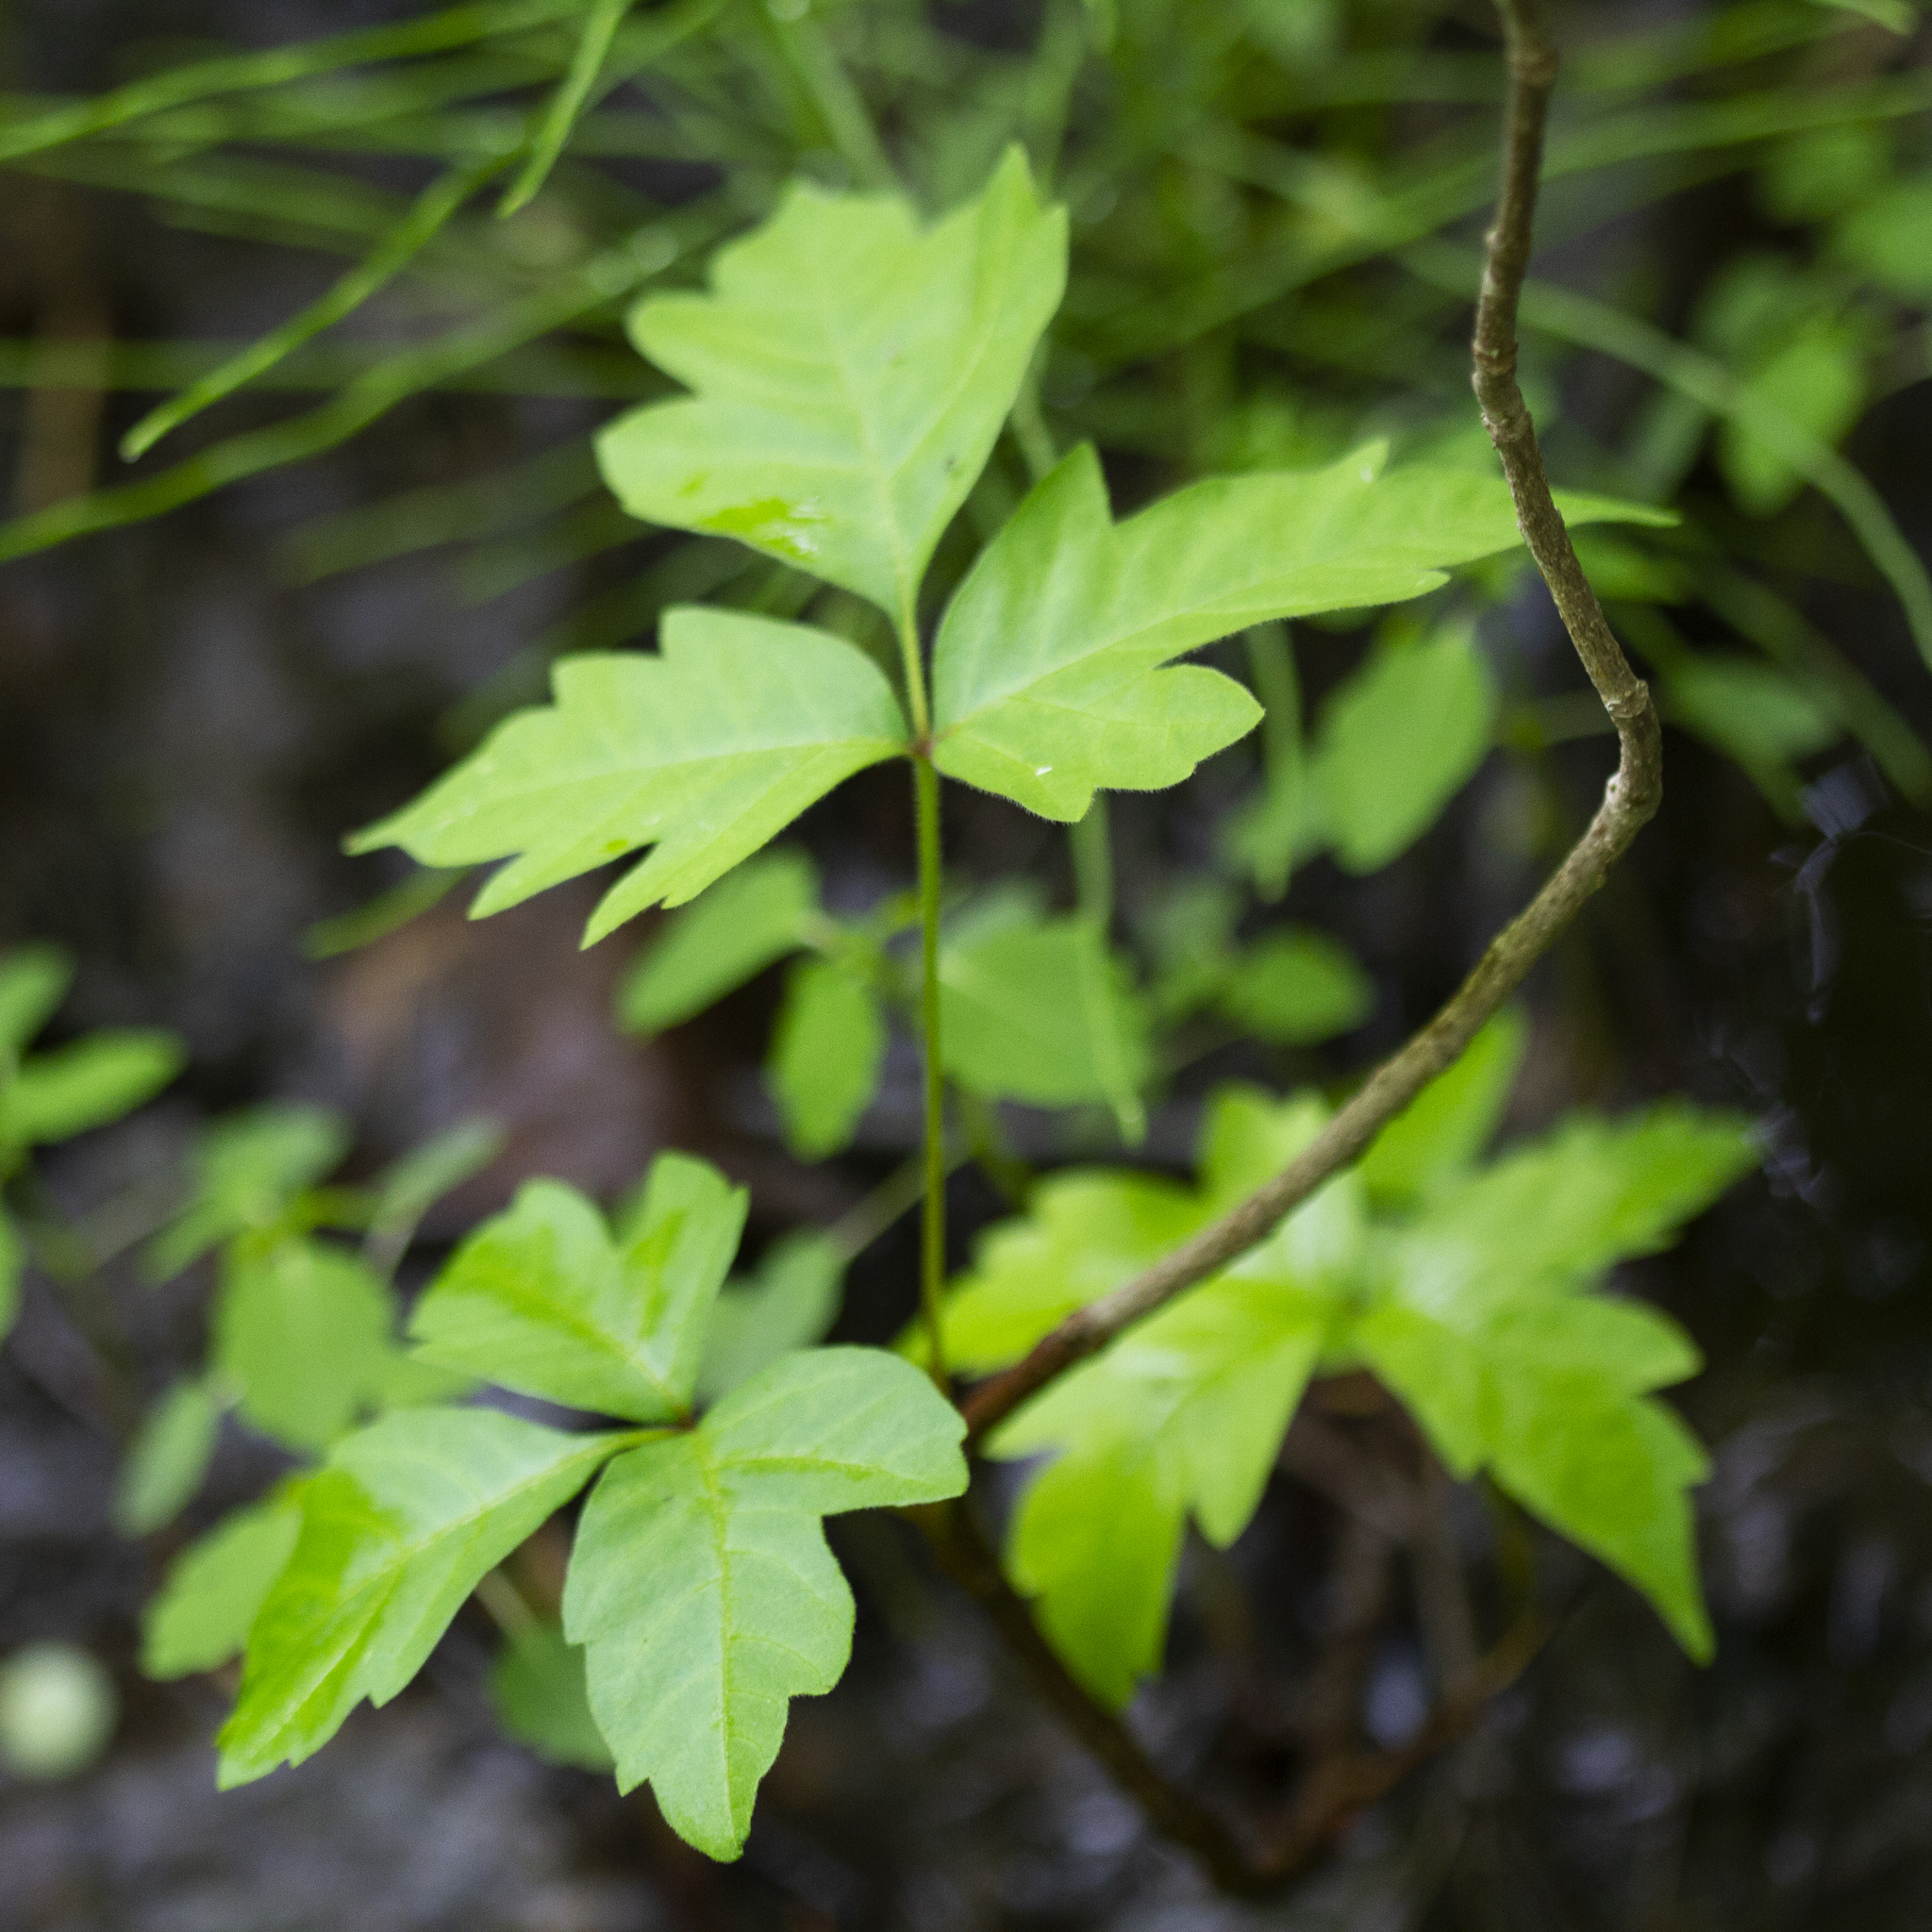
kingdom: Plantae
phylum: Tracheophyta
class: Magnoliopsida
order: Sapindales
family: Anacardiaceae
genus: Toxicodendron
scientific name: Toxicodendron radicans
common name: Poison ivy
